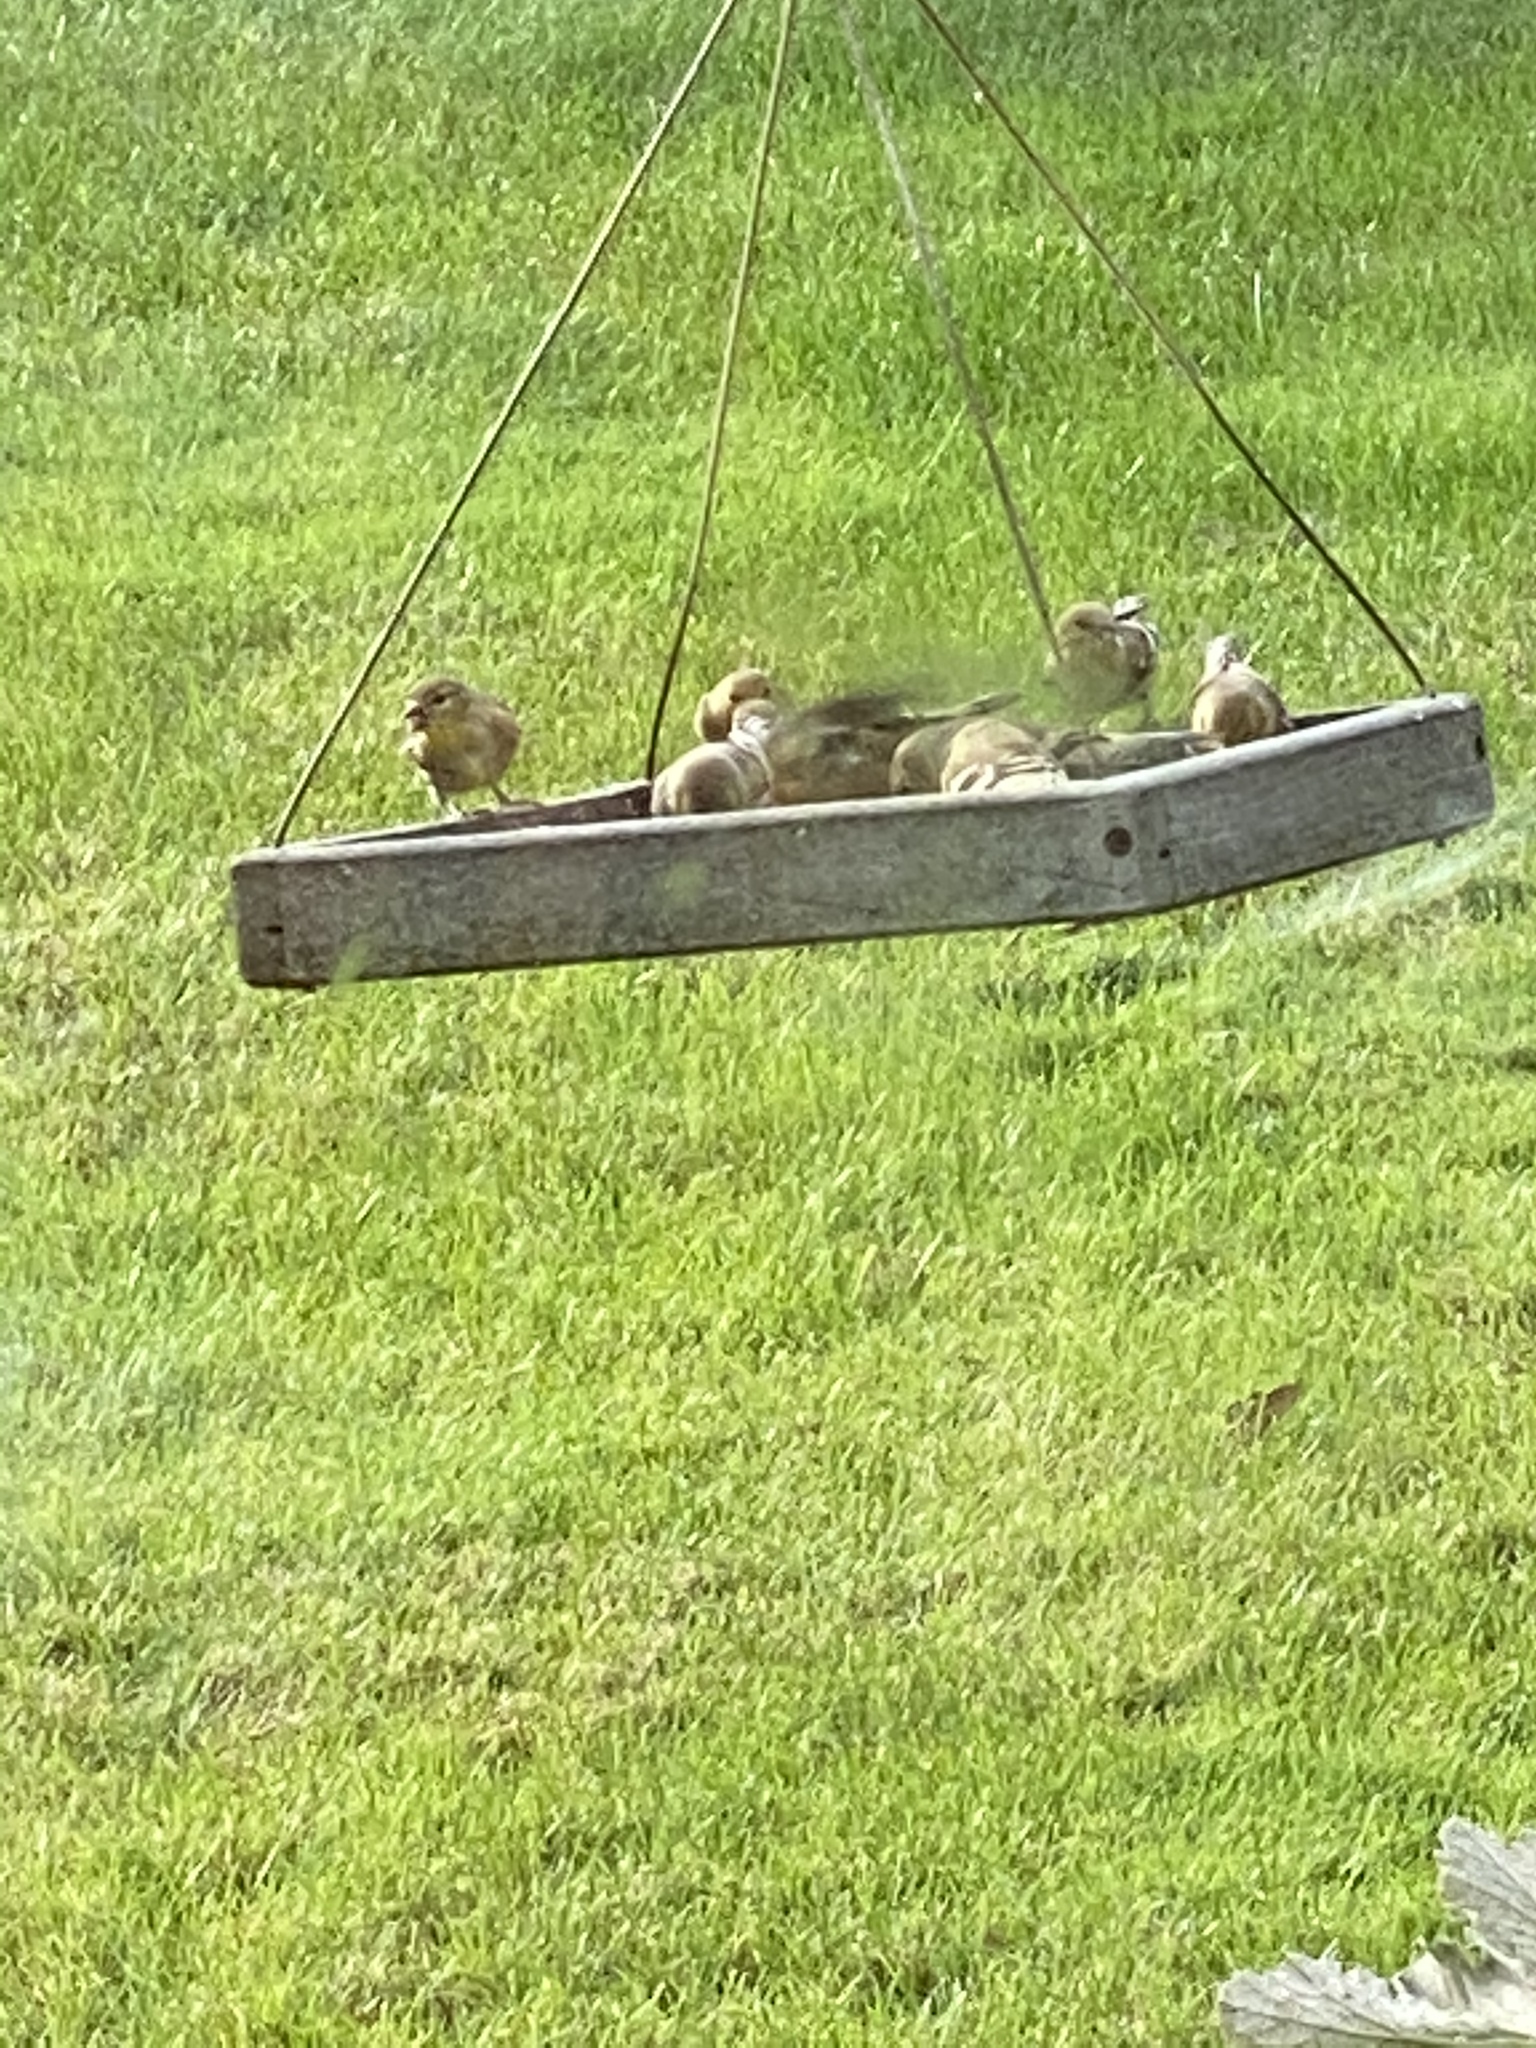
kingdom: Animalia
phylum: Chordata
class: Aves
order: Passeriformes
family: Fringillidae
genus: Spinus
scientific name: Spinus tristis
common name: American goldfinch
